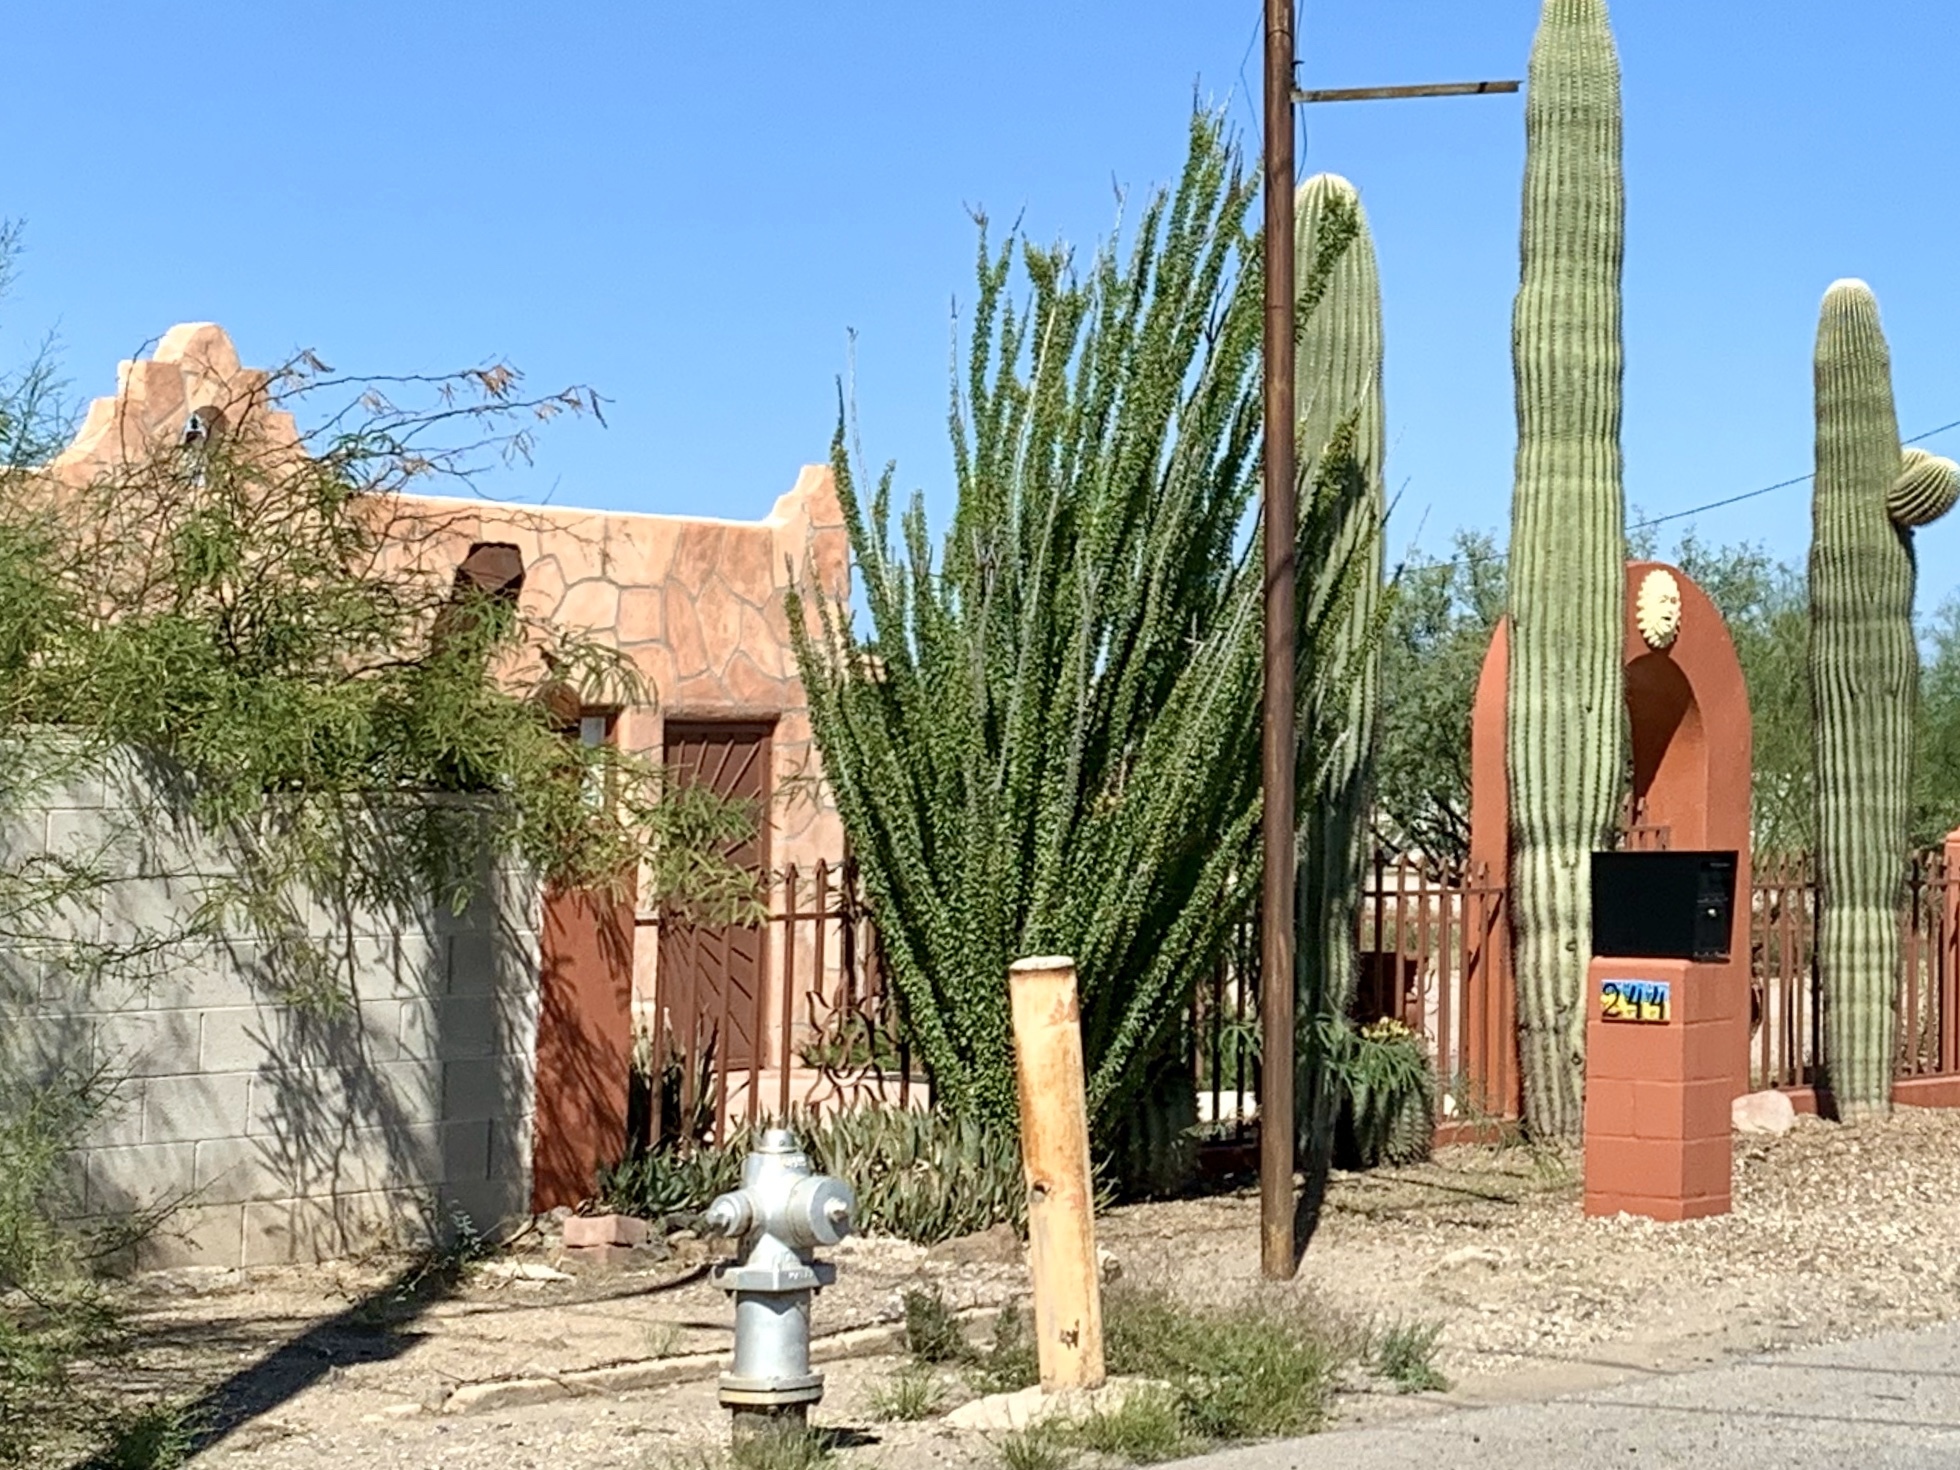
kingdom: Plantae
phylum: Tracheophyta
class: Magnoliopsida
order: Ericales
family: Fouquieriaceae
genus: Fouquieria
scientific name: Fouquieria splendens
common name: Vine-cactus
